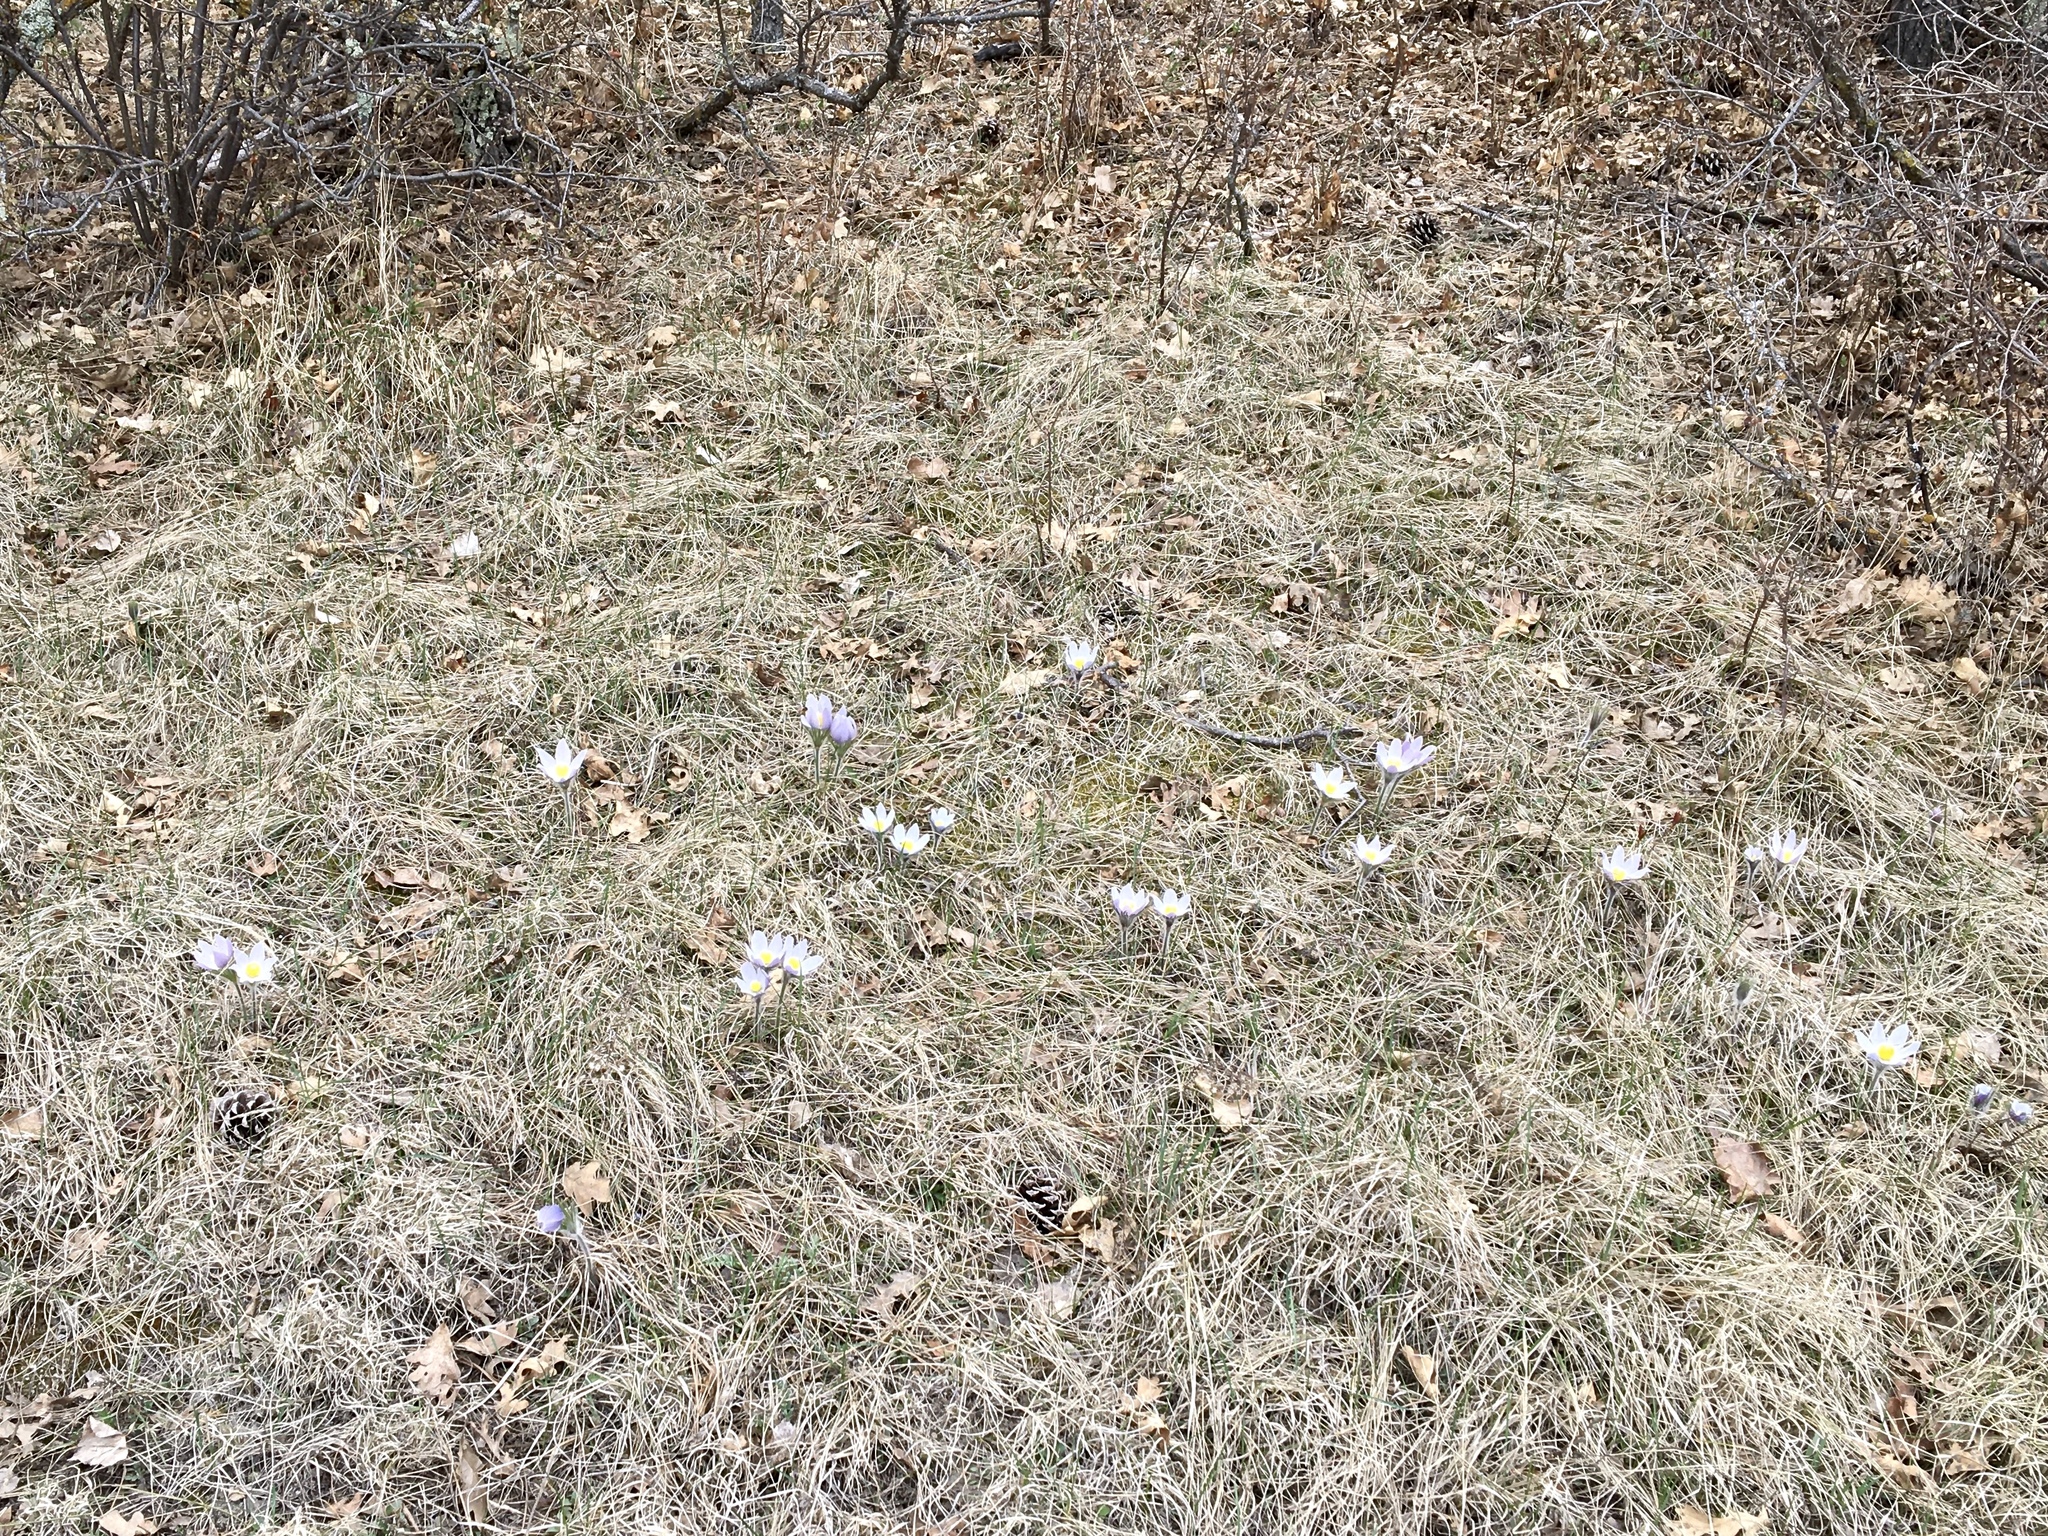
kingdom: Plantae
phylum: Tracheophyta
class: Magnoliopsida
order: Ranunculales
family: Ranunculaceae
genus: Pulsatilla
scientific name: Pulsatilla nuttalliana
